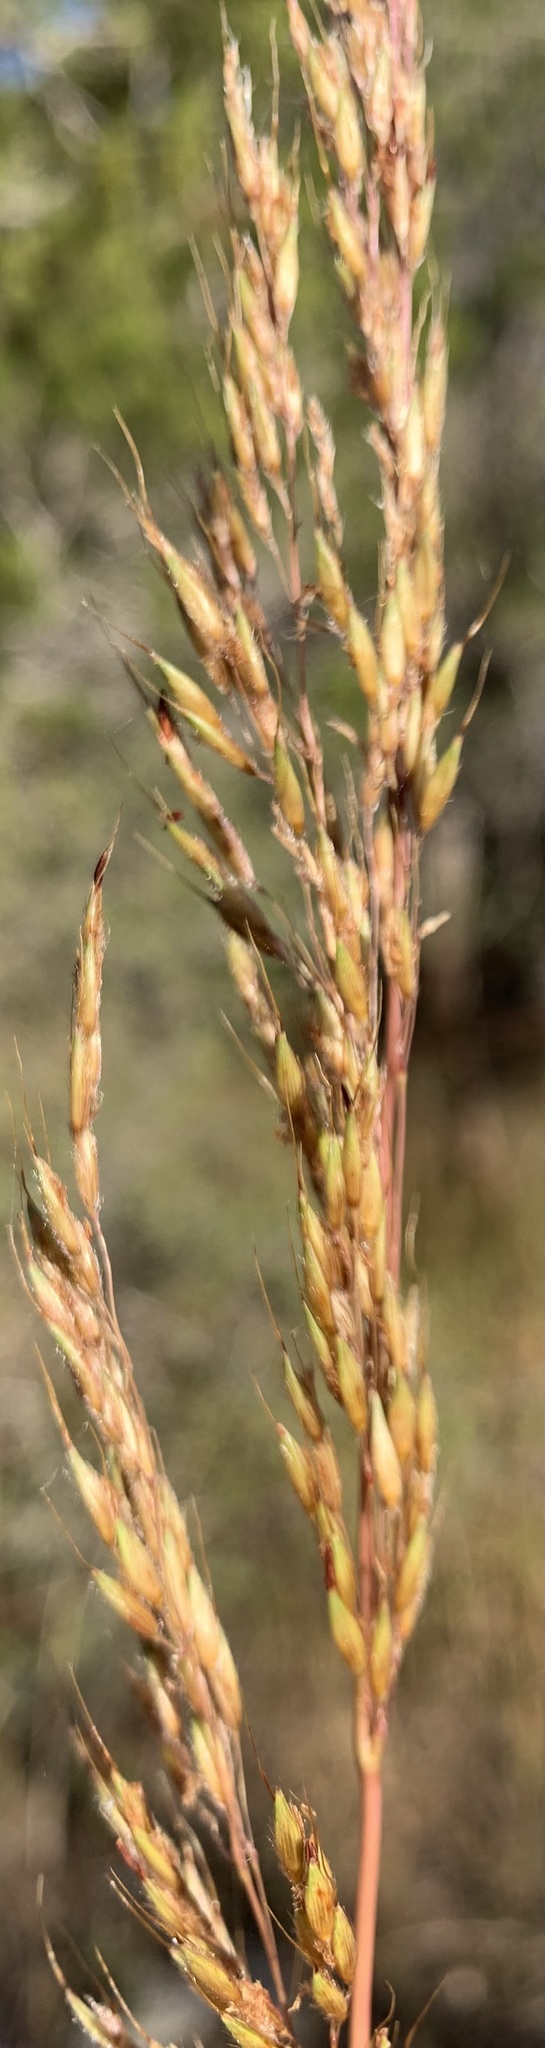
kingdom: Plantae
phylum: Tracheophyta
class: Liliopsida
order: Poales
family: Poaceae
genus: Sorghastrum
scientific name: Sorghastrum nutans
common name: Indian grass
